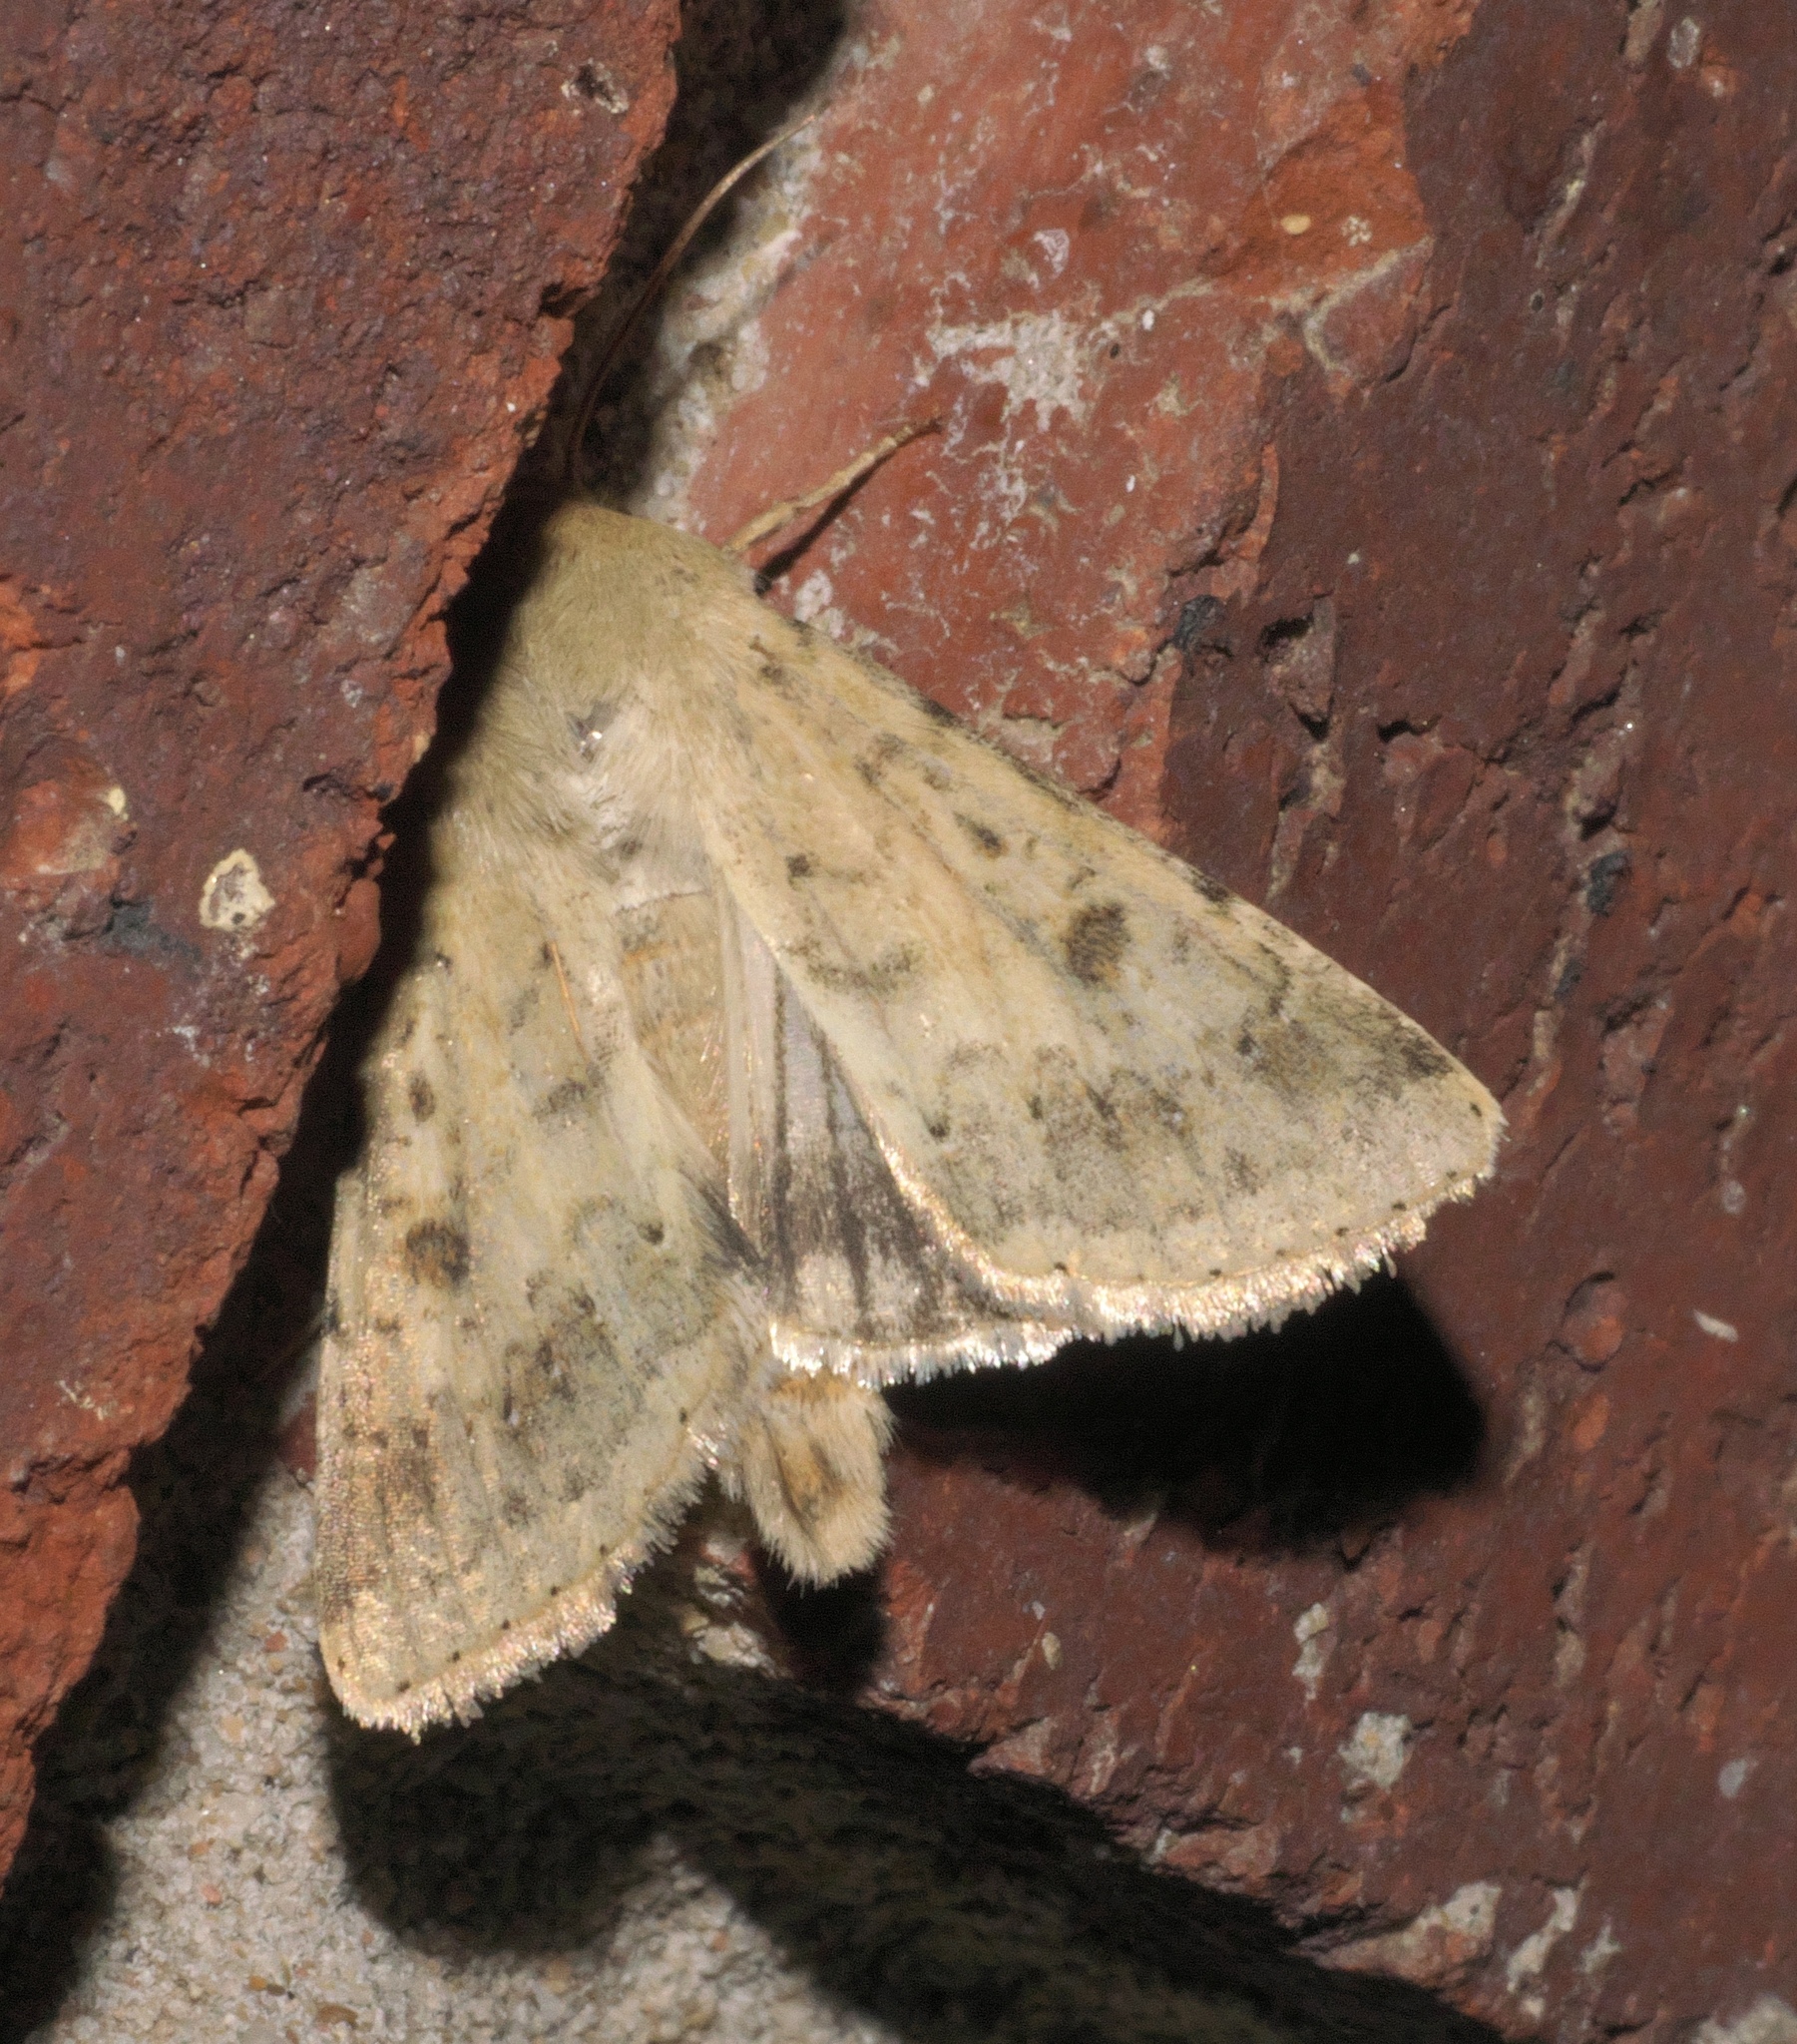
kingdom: Animalia
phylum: Arthropoda
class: Insecta
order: Lepidoptera
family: Noctuidae
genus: Helicoverpa
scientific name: Helicoverpa zea
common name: Bollworm
